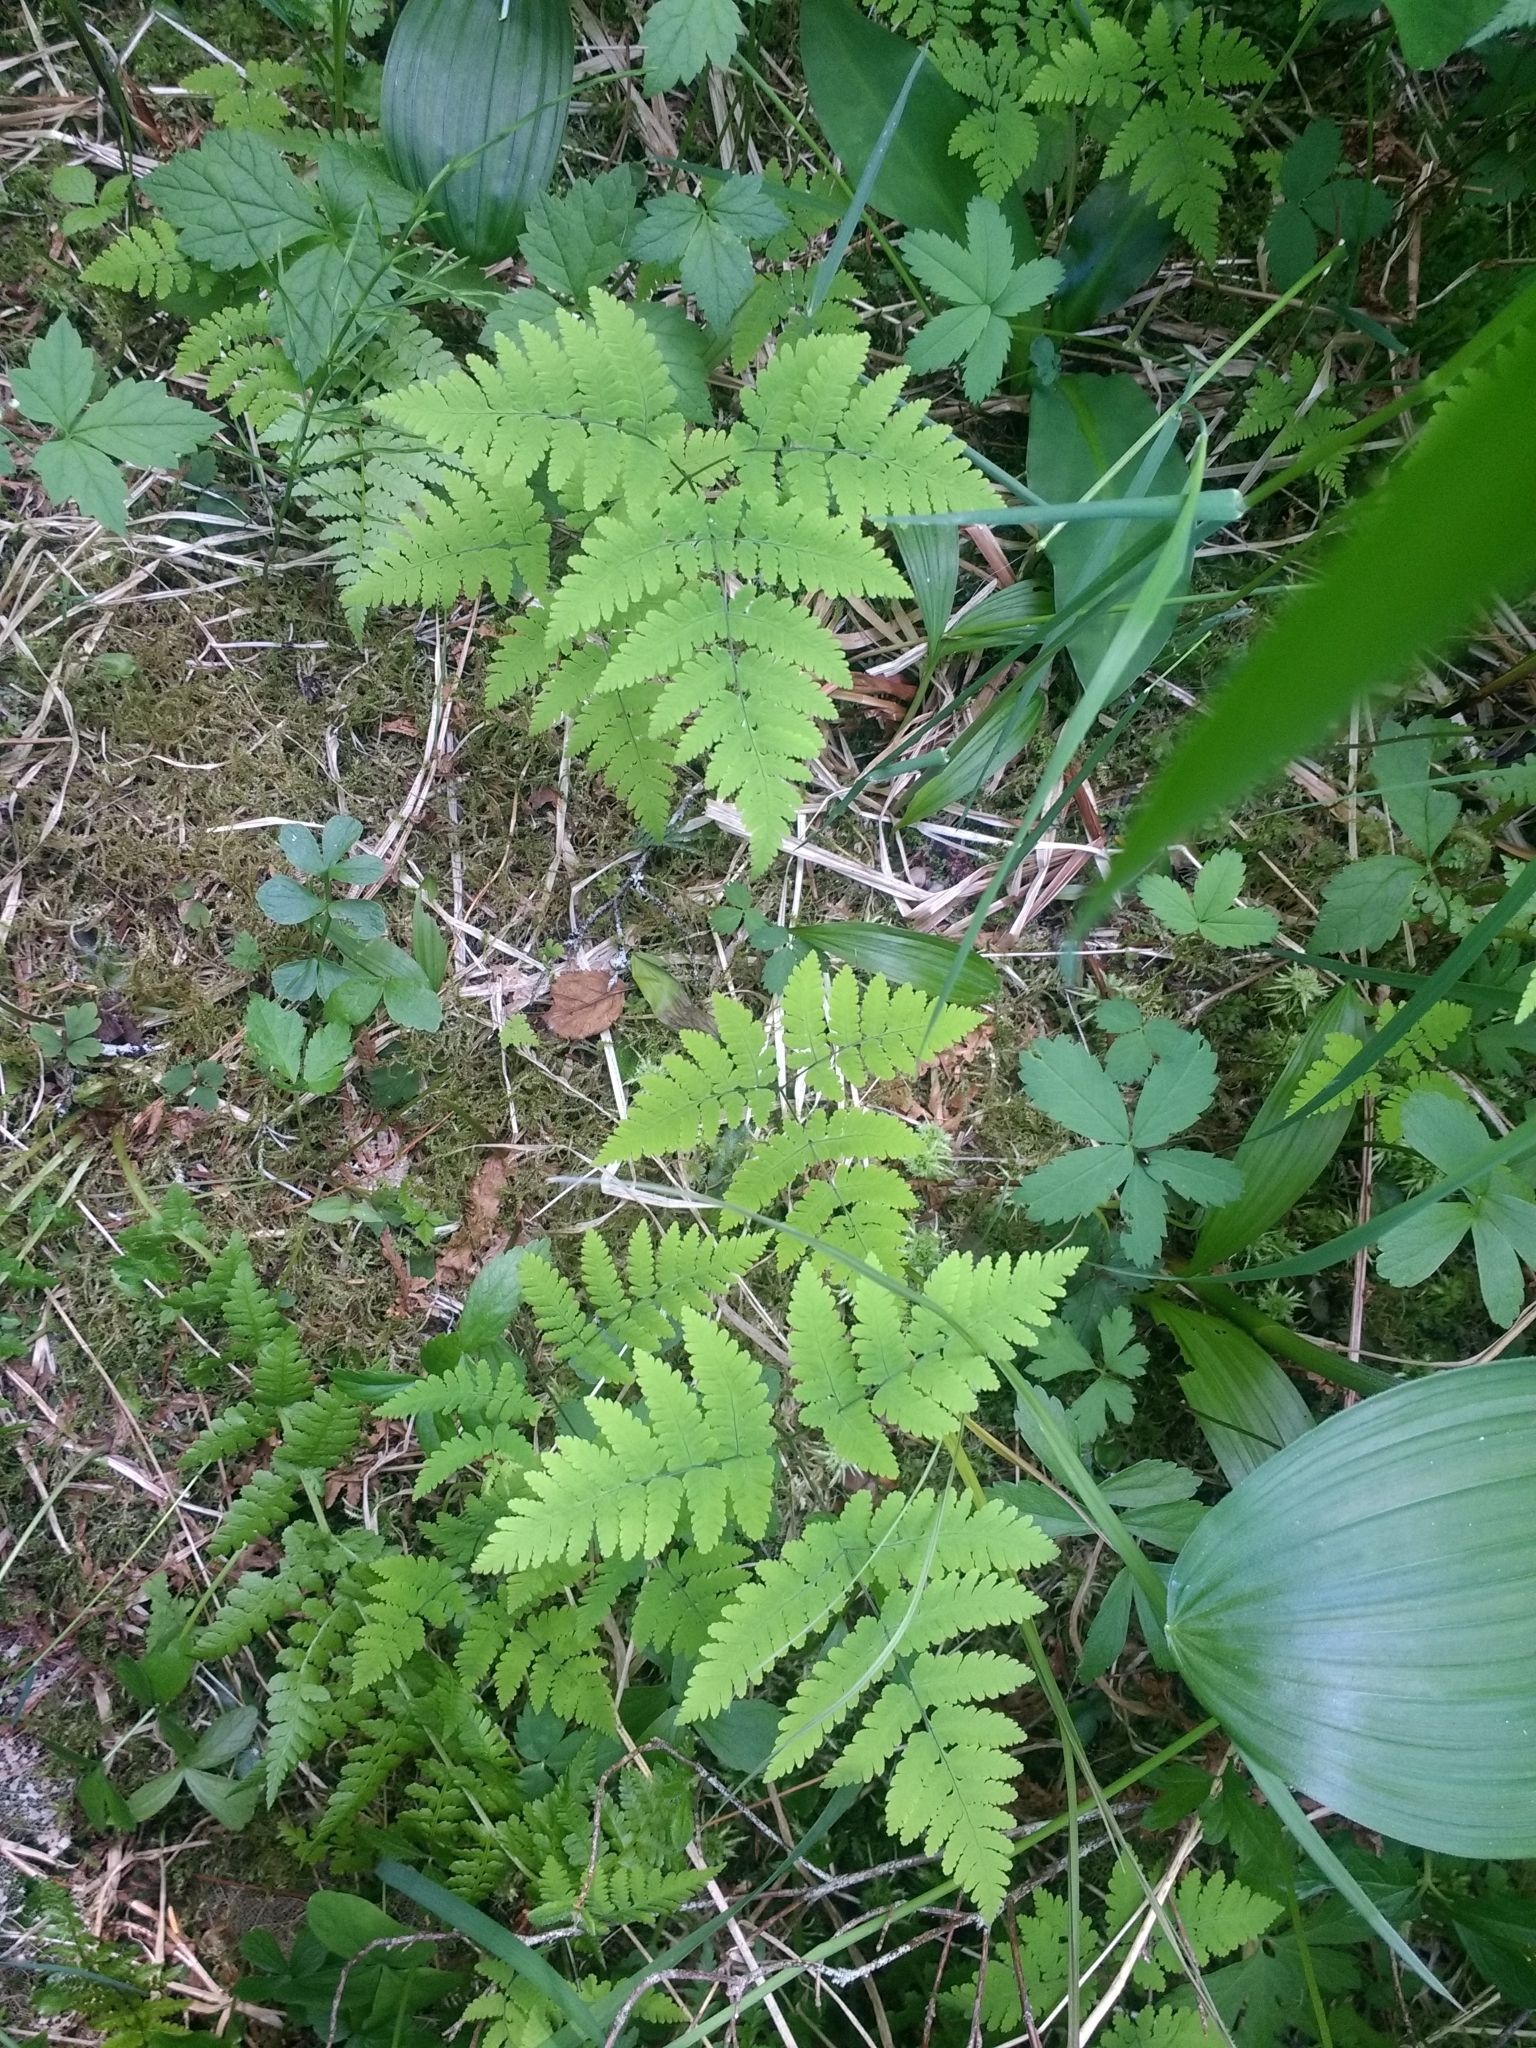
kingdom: Plantae
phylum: Tracheophyta
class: Polypodiopsida
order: Polypodiales
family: Cystopteridaceae
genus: Gymnocarpium
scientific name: Gymnocarpium dryopteris
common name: Oak fern
